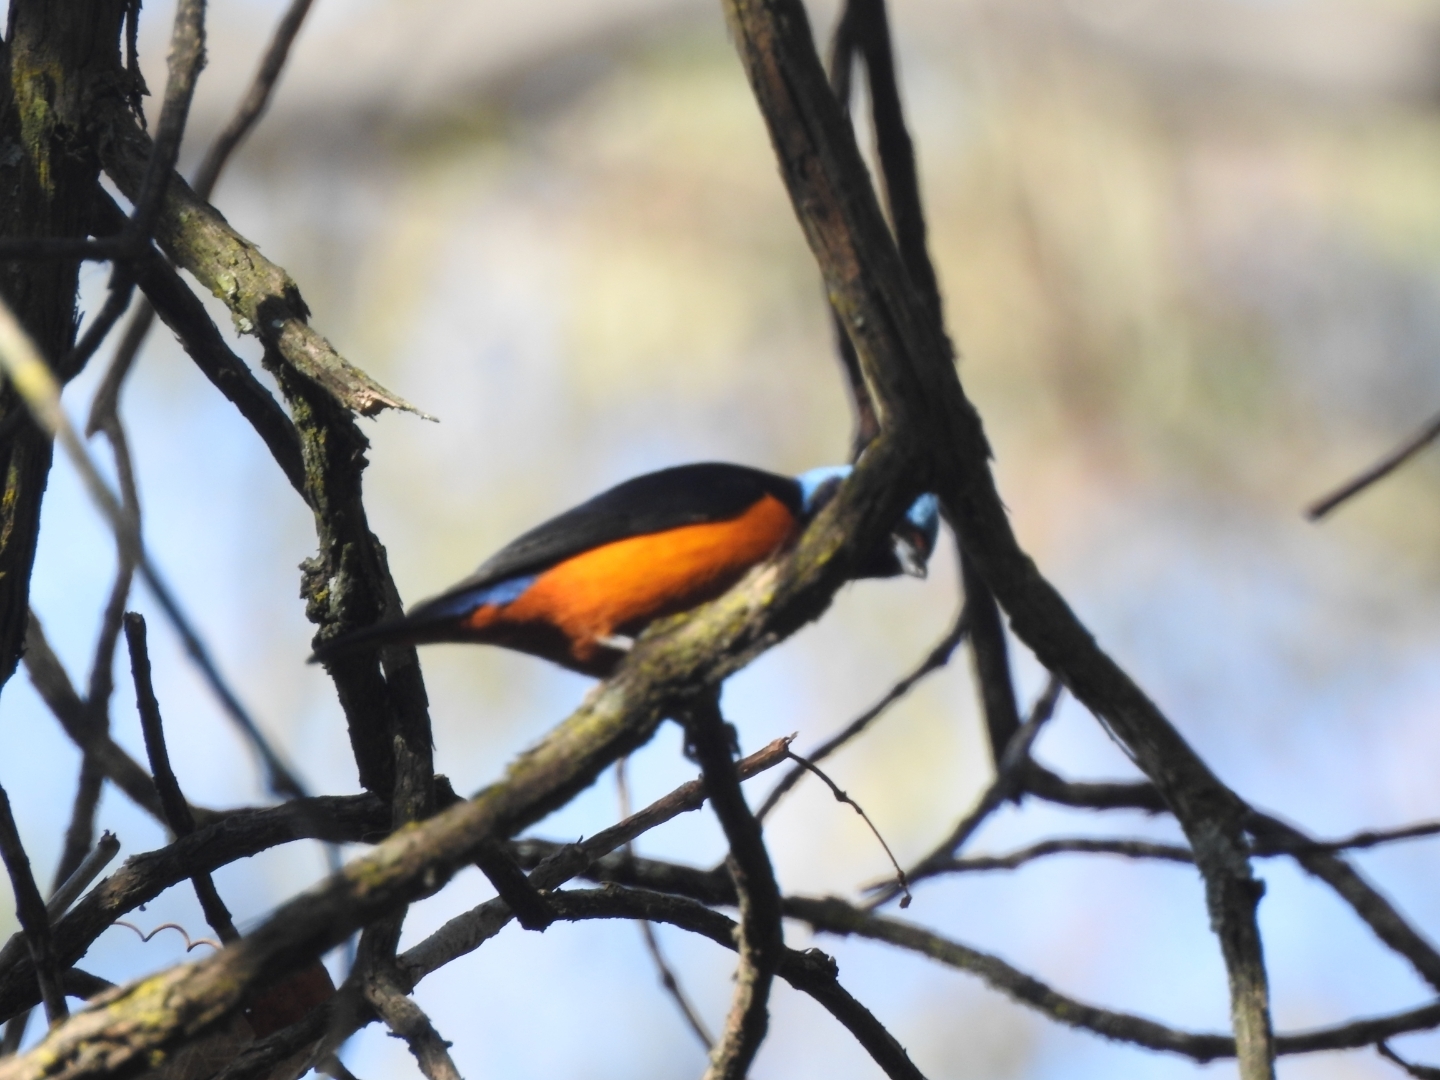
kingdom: Animalia
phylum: Chordata
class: Aves
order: Passeriformes
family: Fringillidae
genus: Euphonia
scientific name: Euphonia elegantissima
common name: Elegant euphonia
